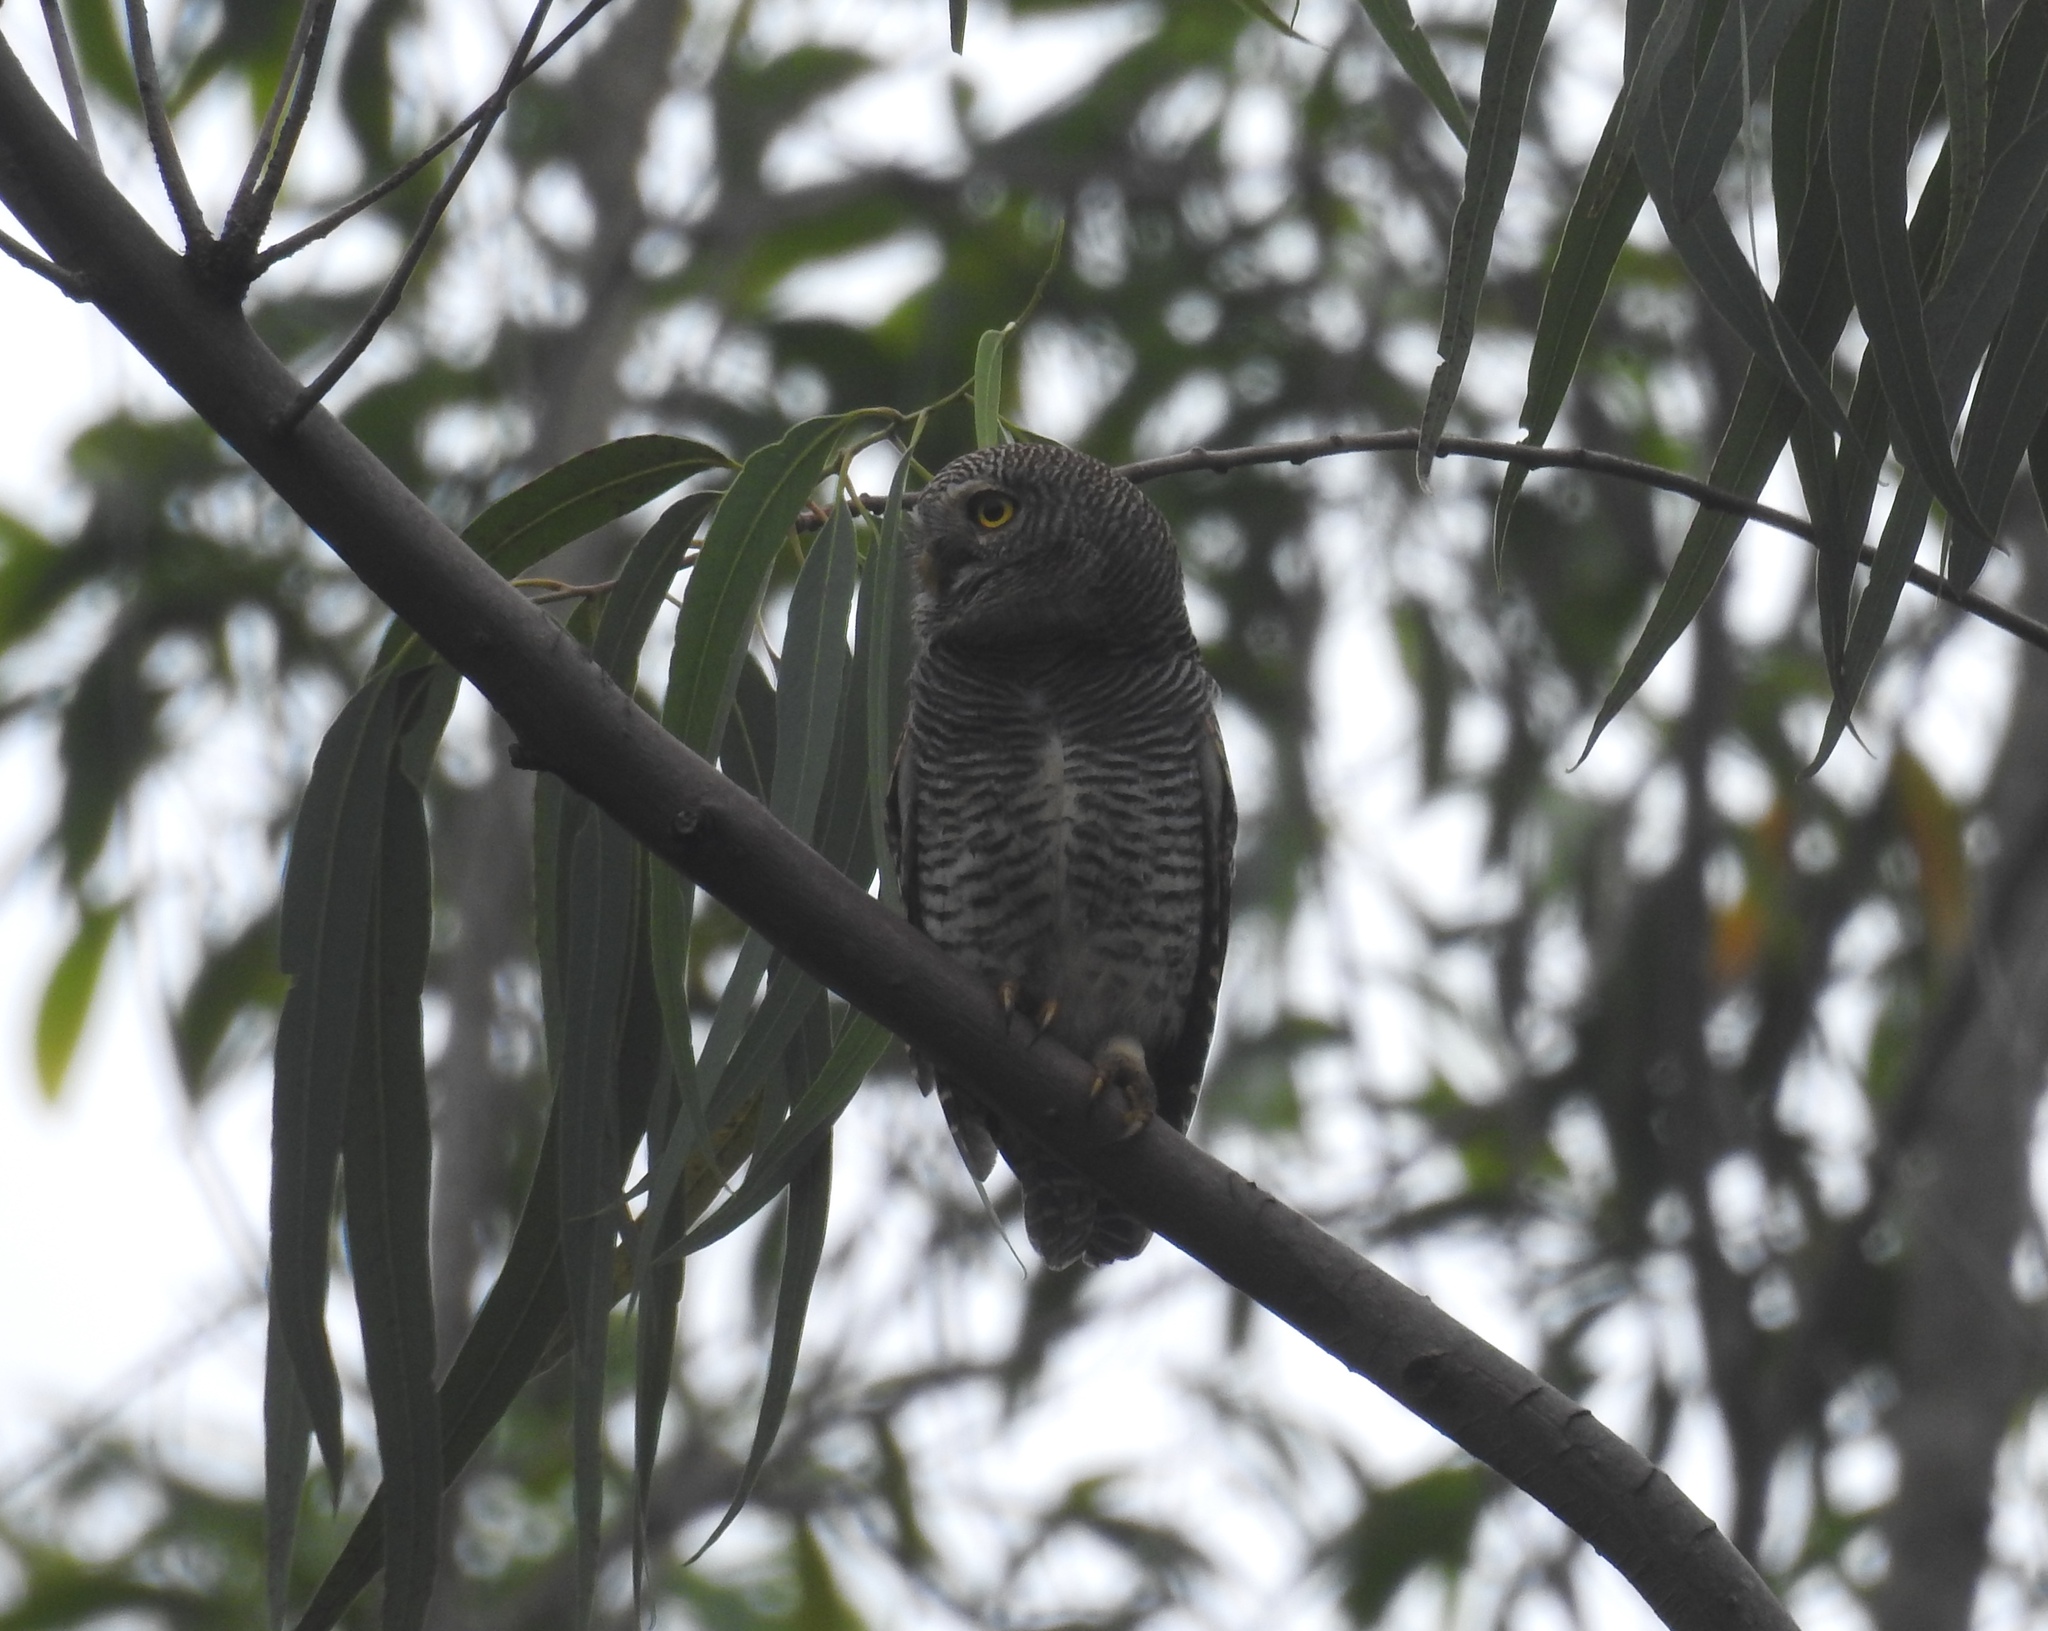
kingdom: Animalia
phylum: Chordata
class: Aves
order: Strigiformes
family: Strigidae
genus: Glaucidium
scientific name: Glaucidium radiatum
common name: Jungle owlet
